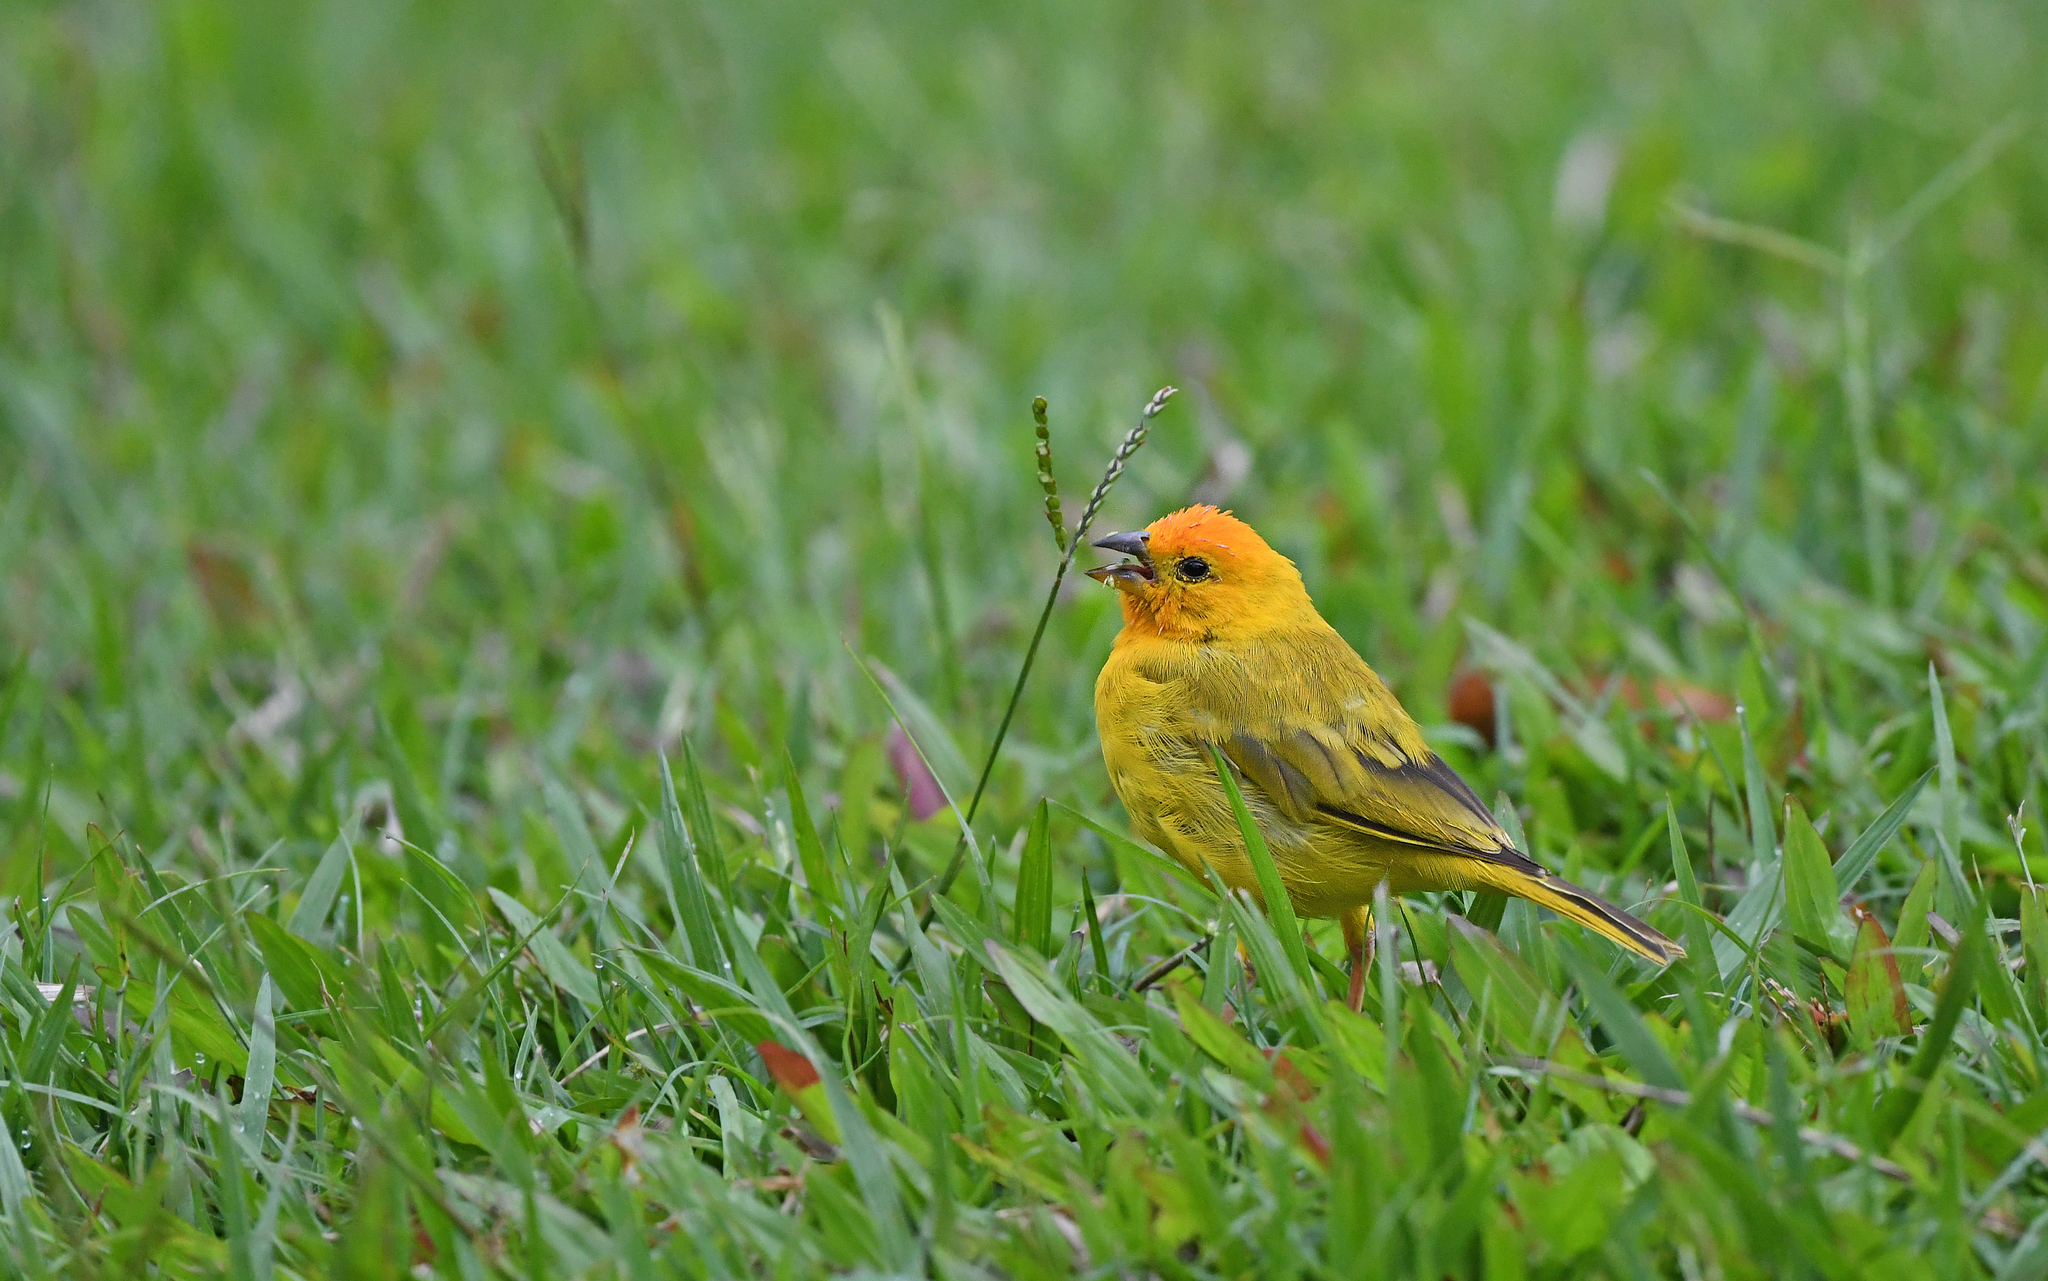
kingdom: Animalia
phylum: Chordata
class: Aves
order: Passeriformes
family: Thraupidae
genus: Sicalis
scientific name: Sicalis flaveola
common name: Saffron finch
